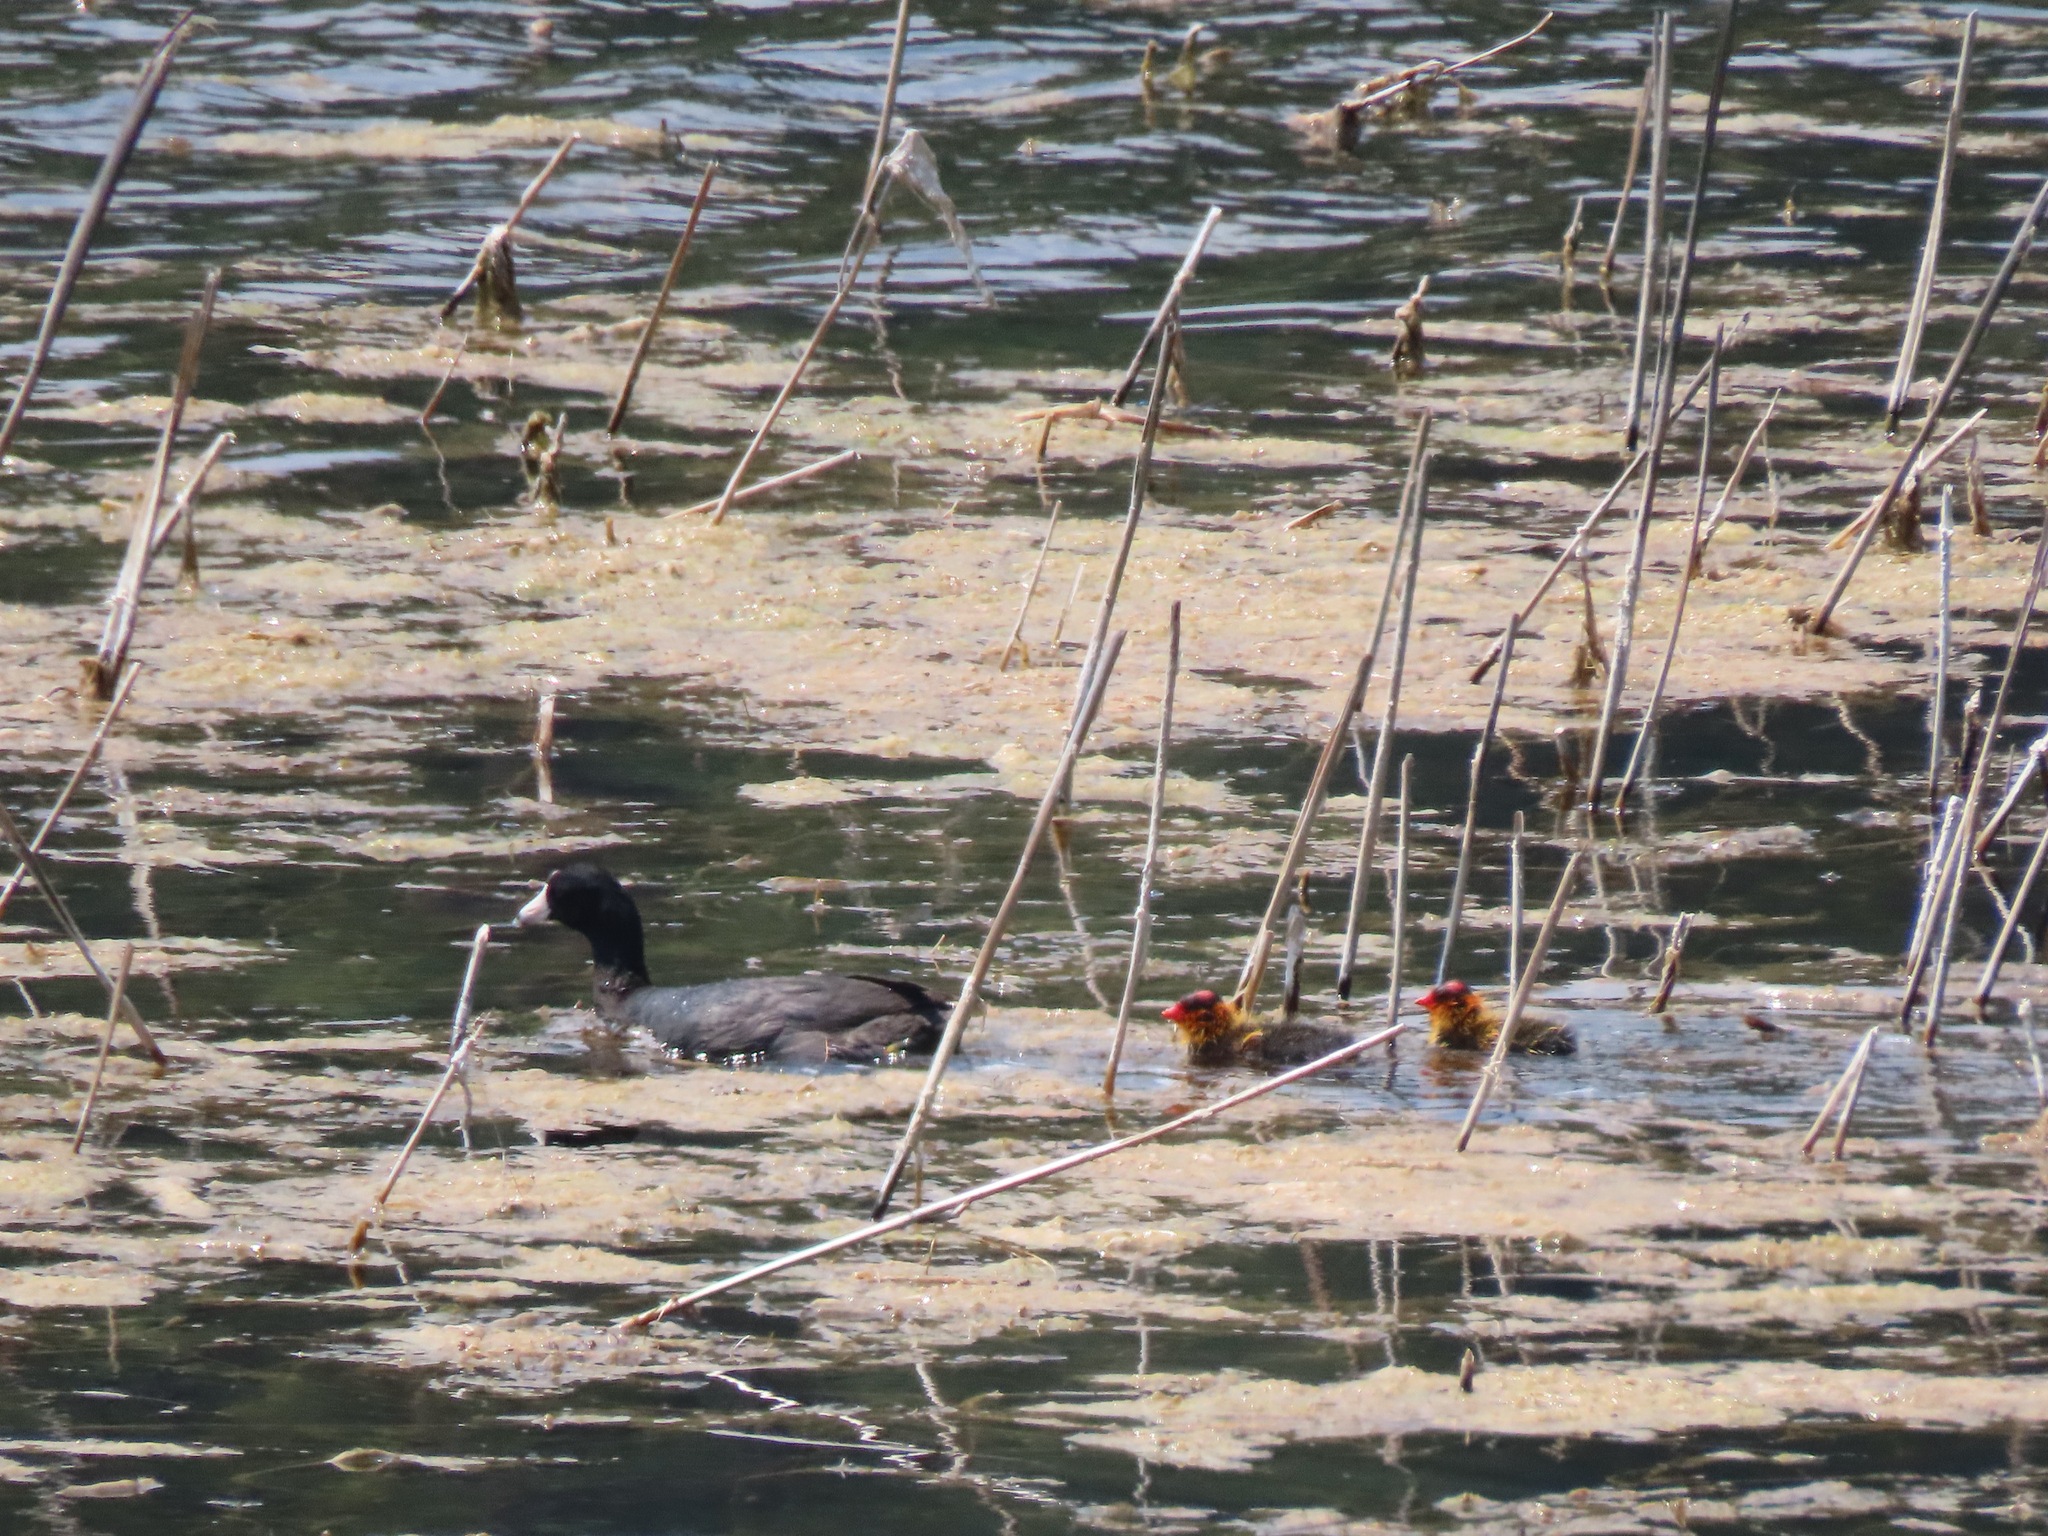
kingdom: Animalia
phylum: Chordata
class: Aves
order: Gruiformes
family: Rallidae
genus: Fulica
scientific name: Fulica americana
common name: American coot
